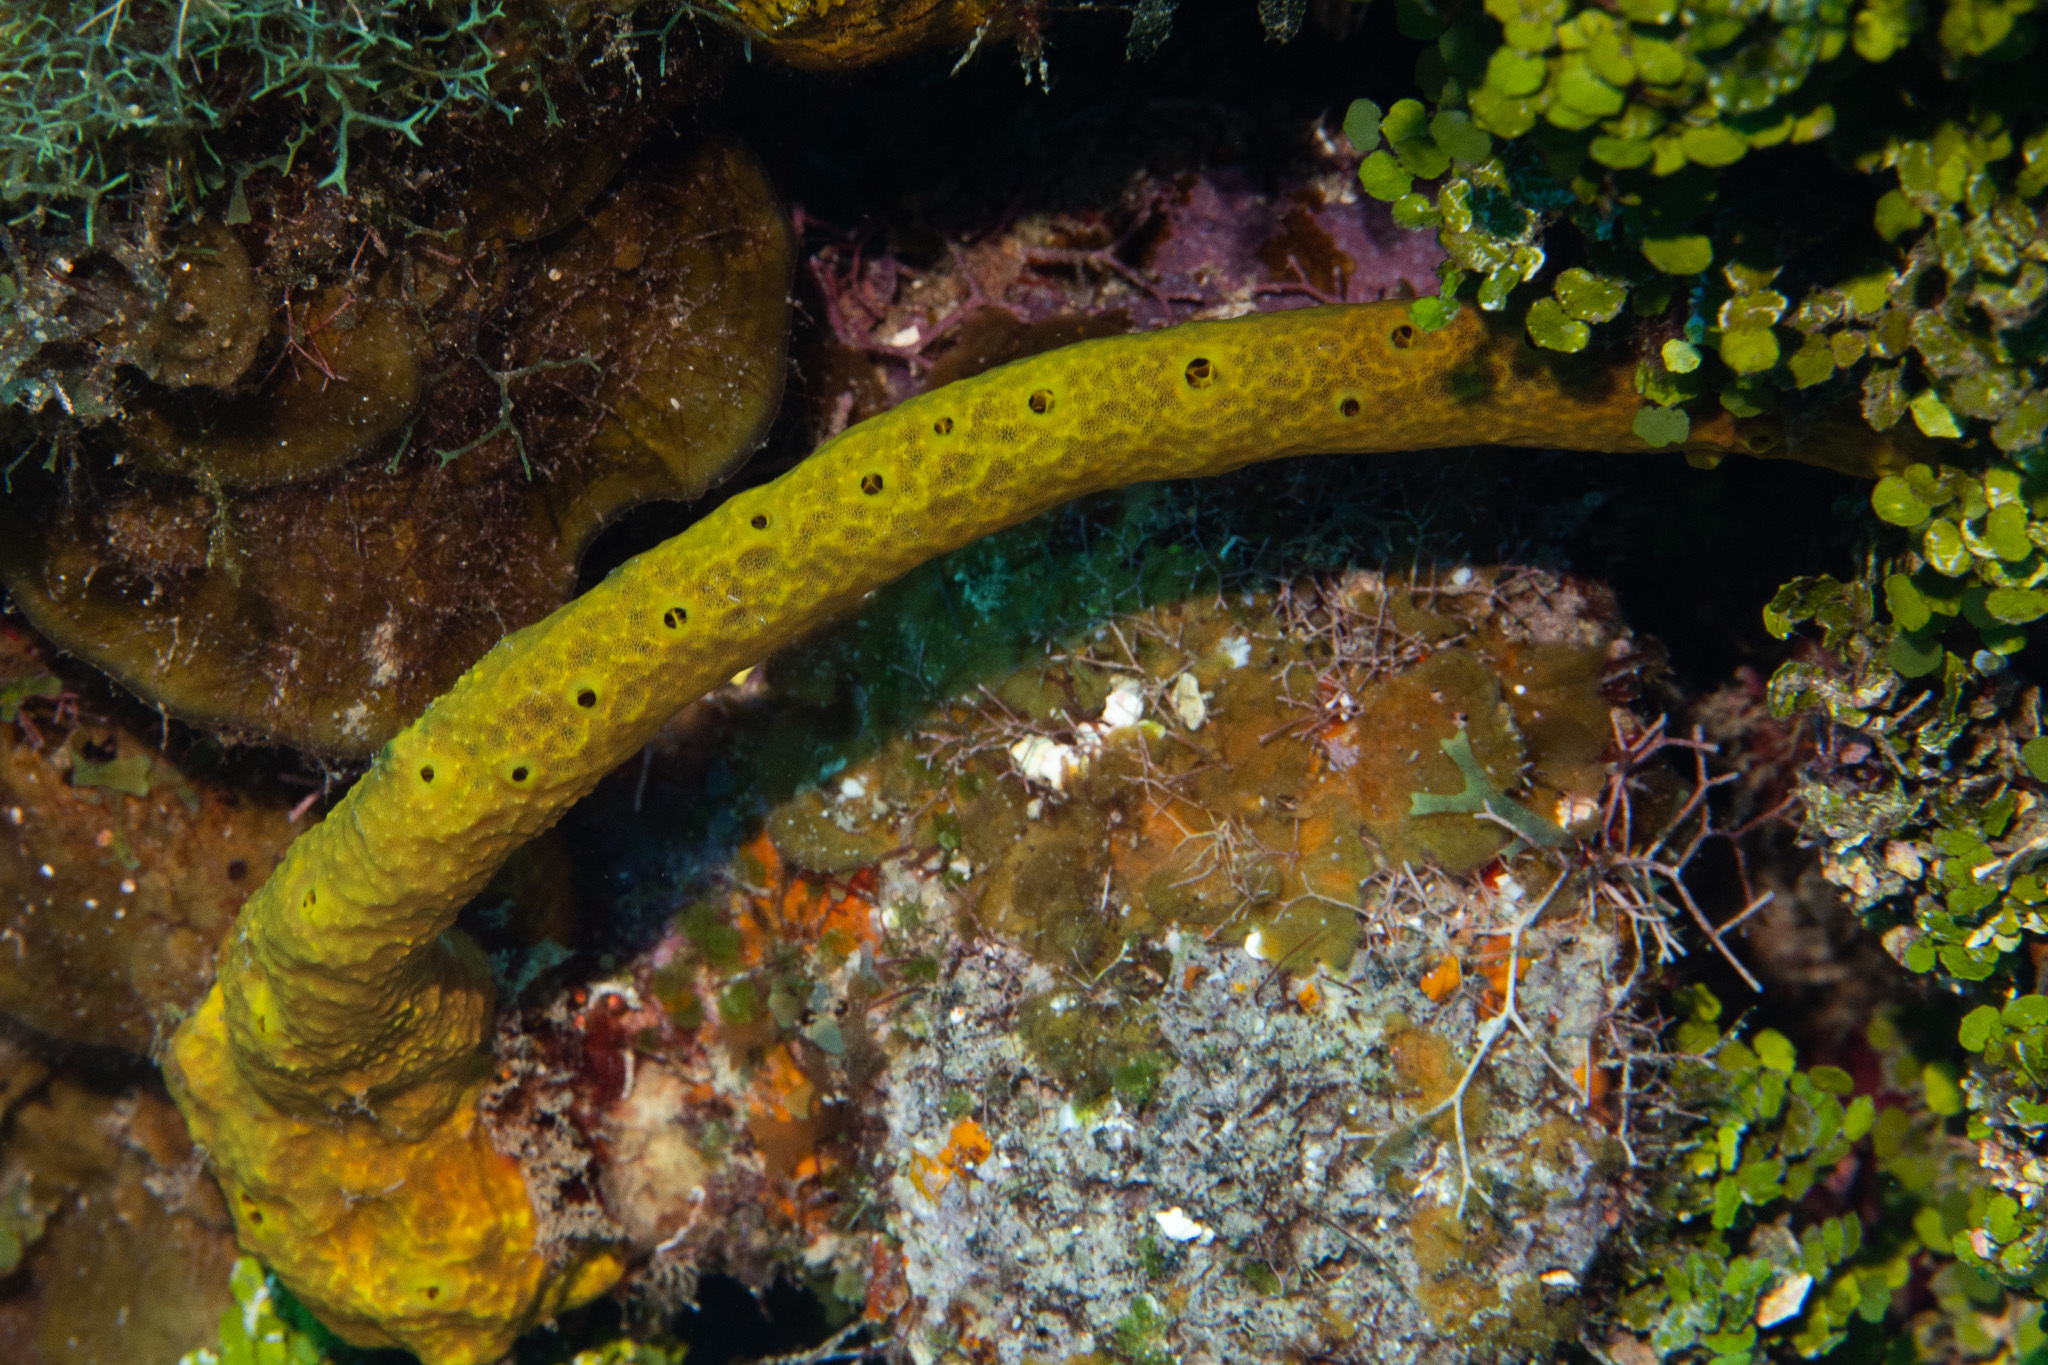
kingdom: Animalia
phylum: Porifera
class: Demospongiae
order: Verongiida
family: Aplysinidae
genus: Aplysina
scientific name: Aplysina fulva
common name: Scattered pore rope sponge
